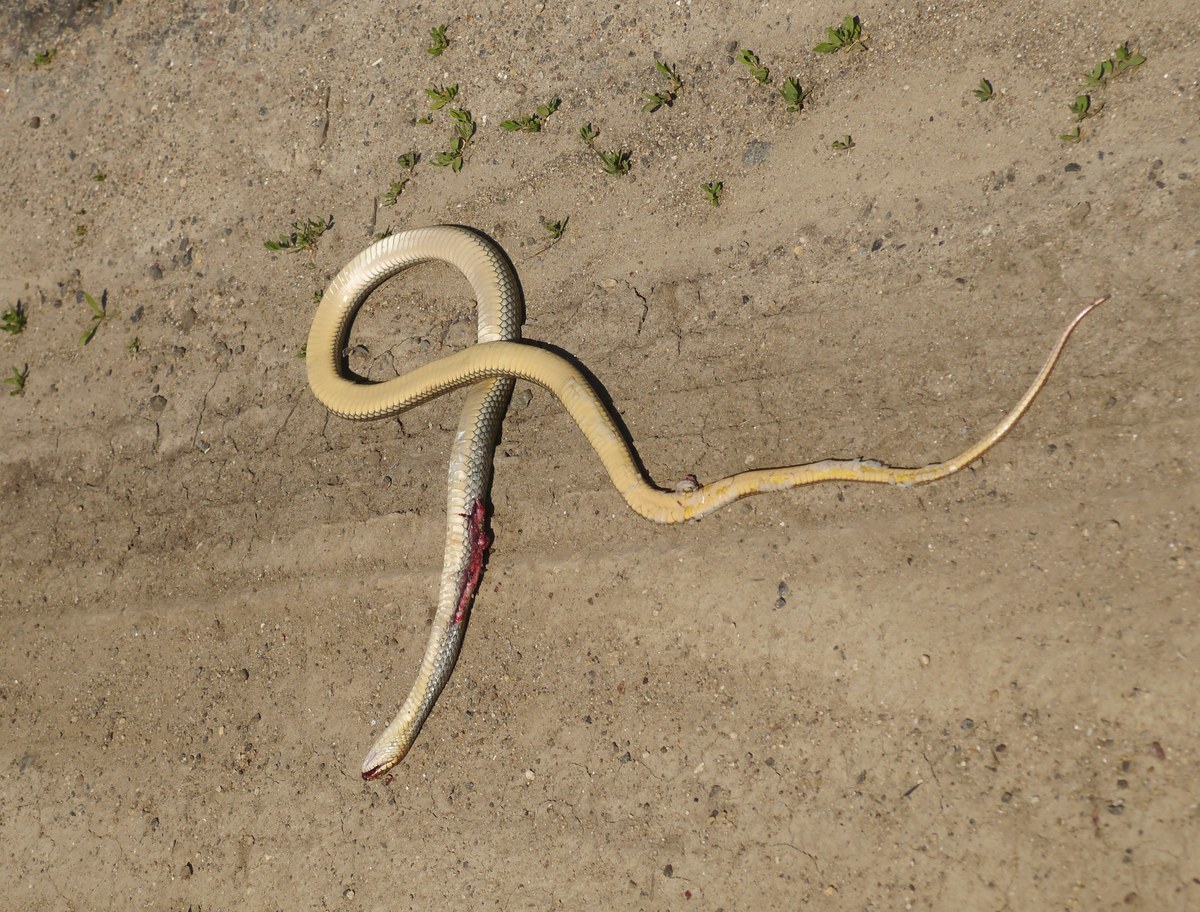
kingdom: Animalia
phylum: Chordata
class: Squamata
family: Colubridae
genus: Dolichophis
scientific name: Dolichophis caspius
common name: Large whip snake
